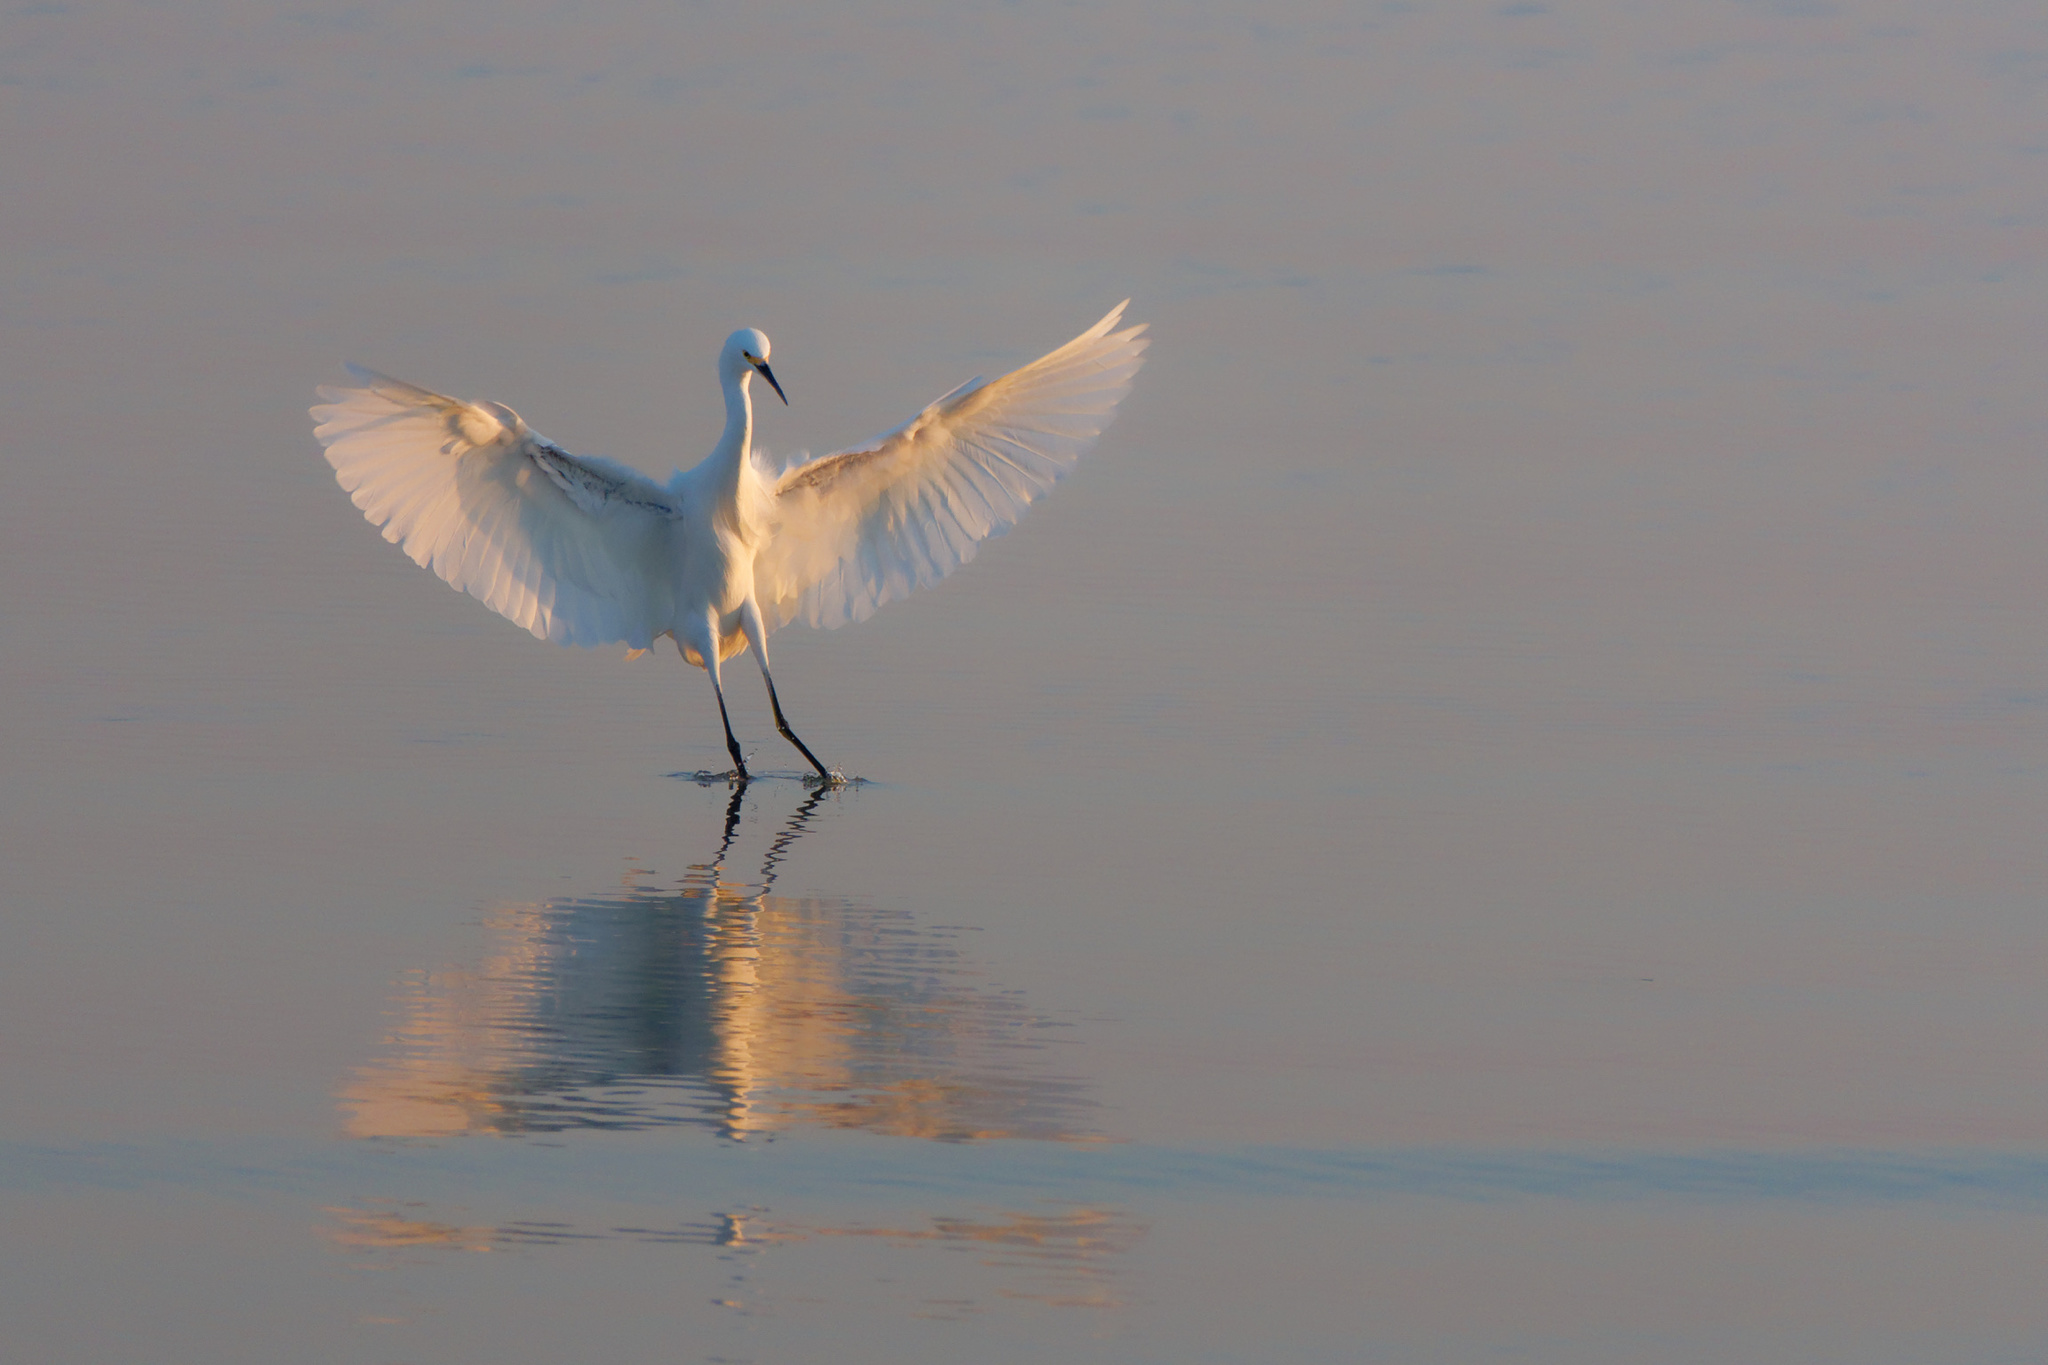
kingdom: Animalia
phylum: Chordata
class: Aves
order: Pelecaniformes
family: Ardeidae
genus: Egretta
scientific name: Egretta thula
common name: Snowy egret
